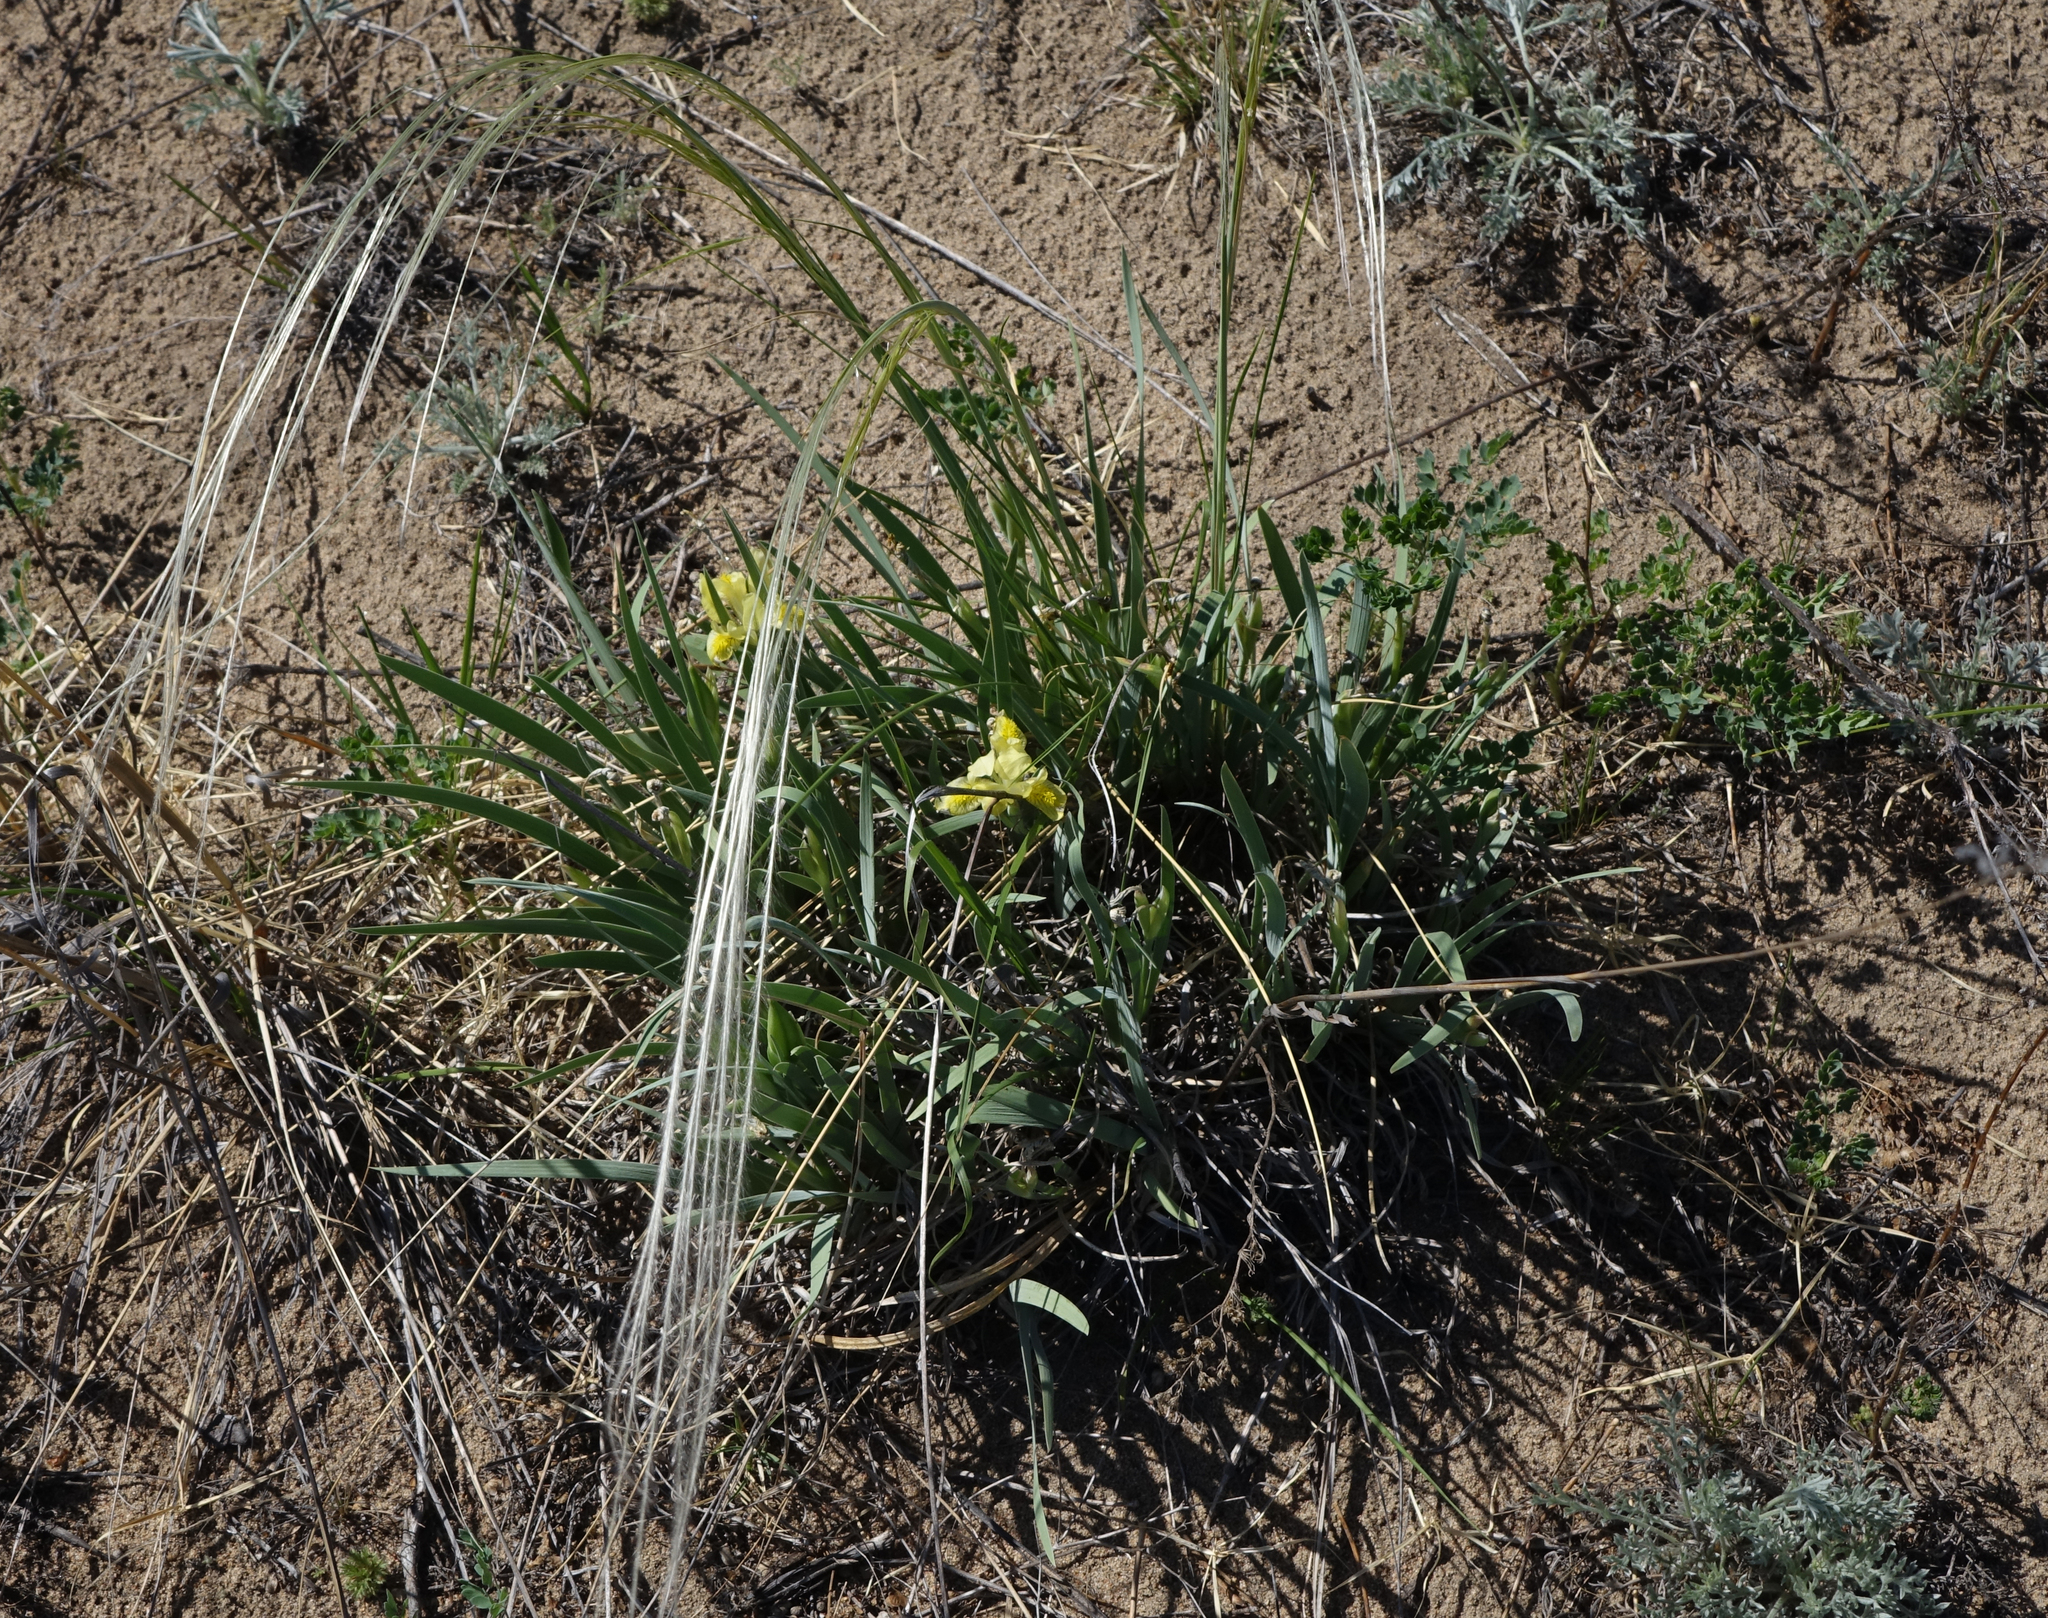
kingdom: Plantae
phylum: Tracheophyta
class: Liliopsida
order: Asparagales
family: Iridaceae
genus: Iris
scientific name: Iris humilis
